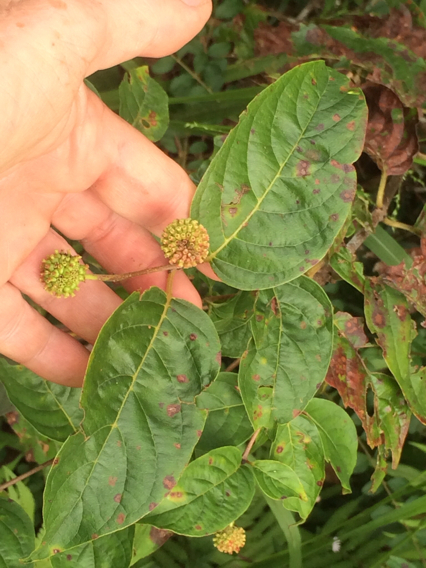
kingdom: Plantae
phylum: Tracheophyta
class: Magnoliopsida
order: Gentianales
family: Rubiaceae
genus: Cephalanthus
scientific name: Cephalanthus occidentalis
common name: Button-willow
